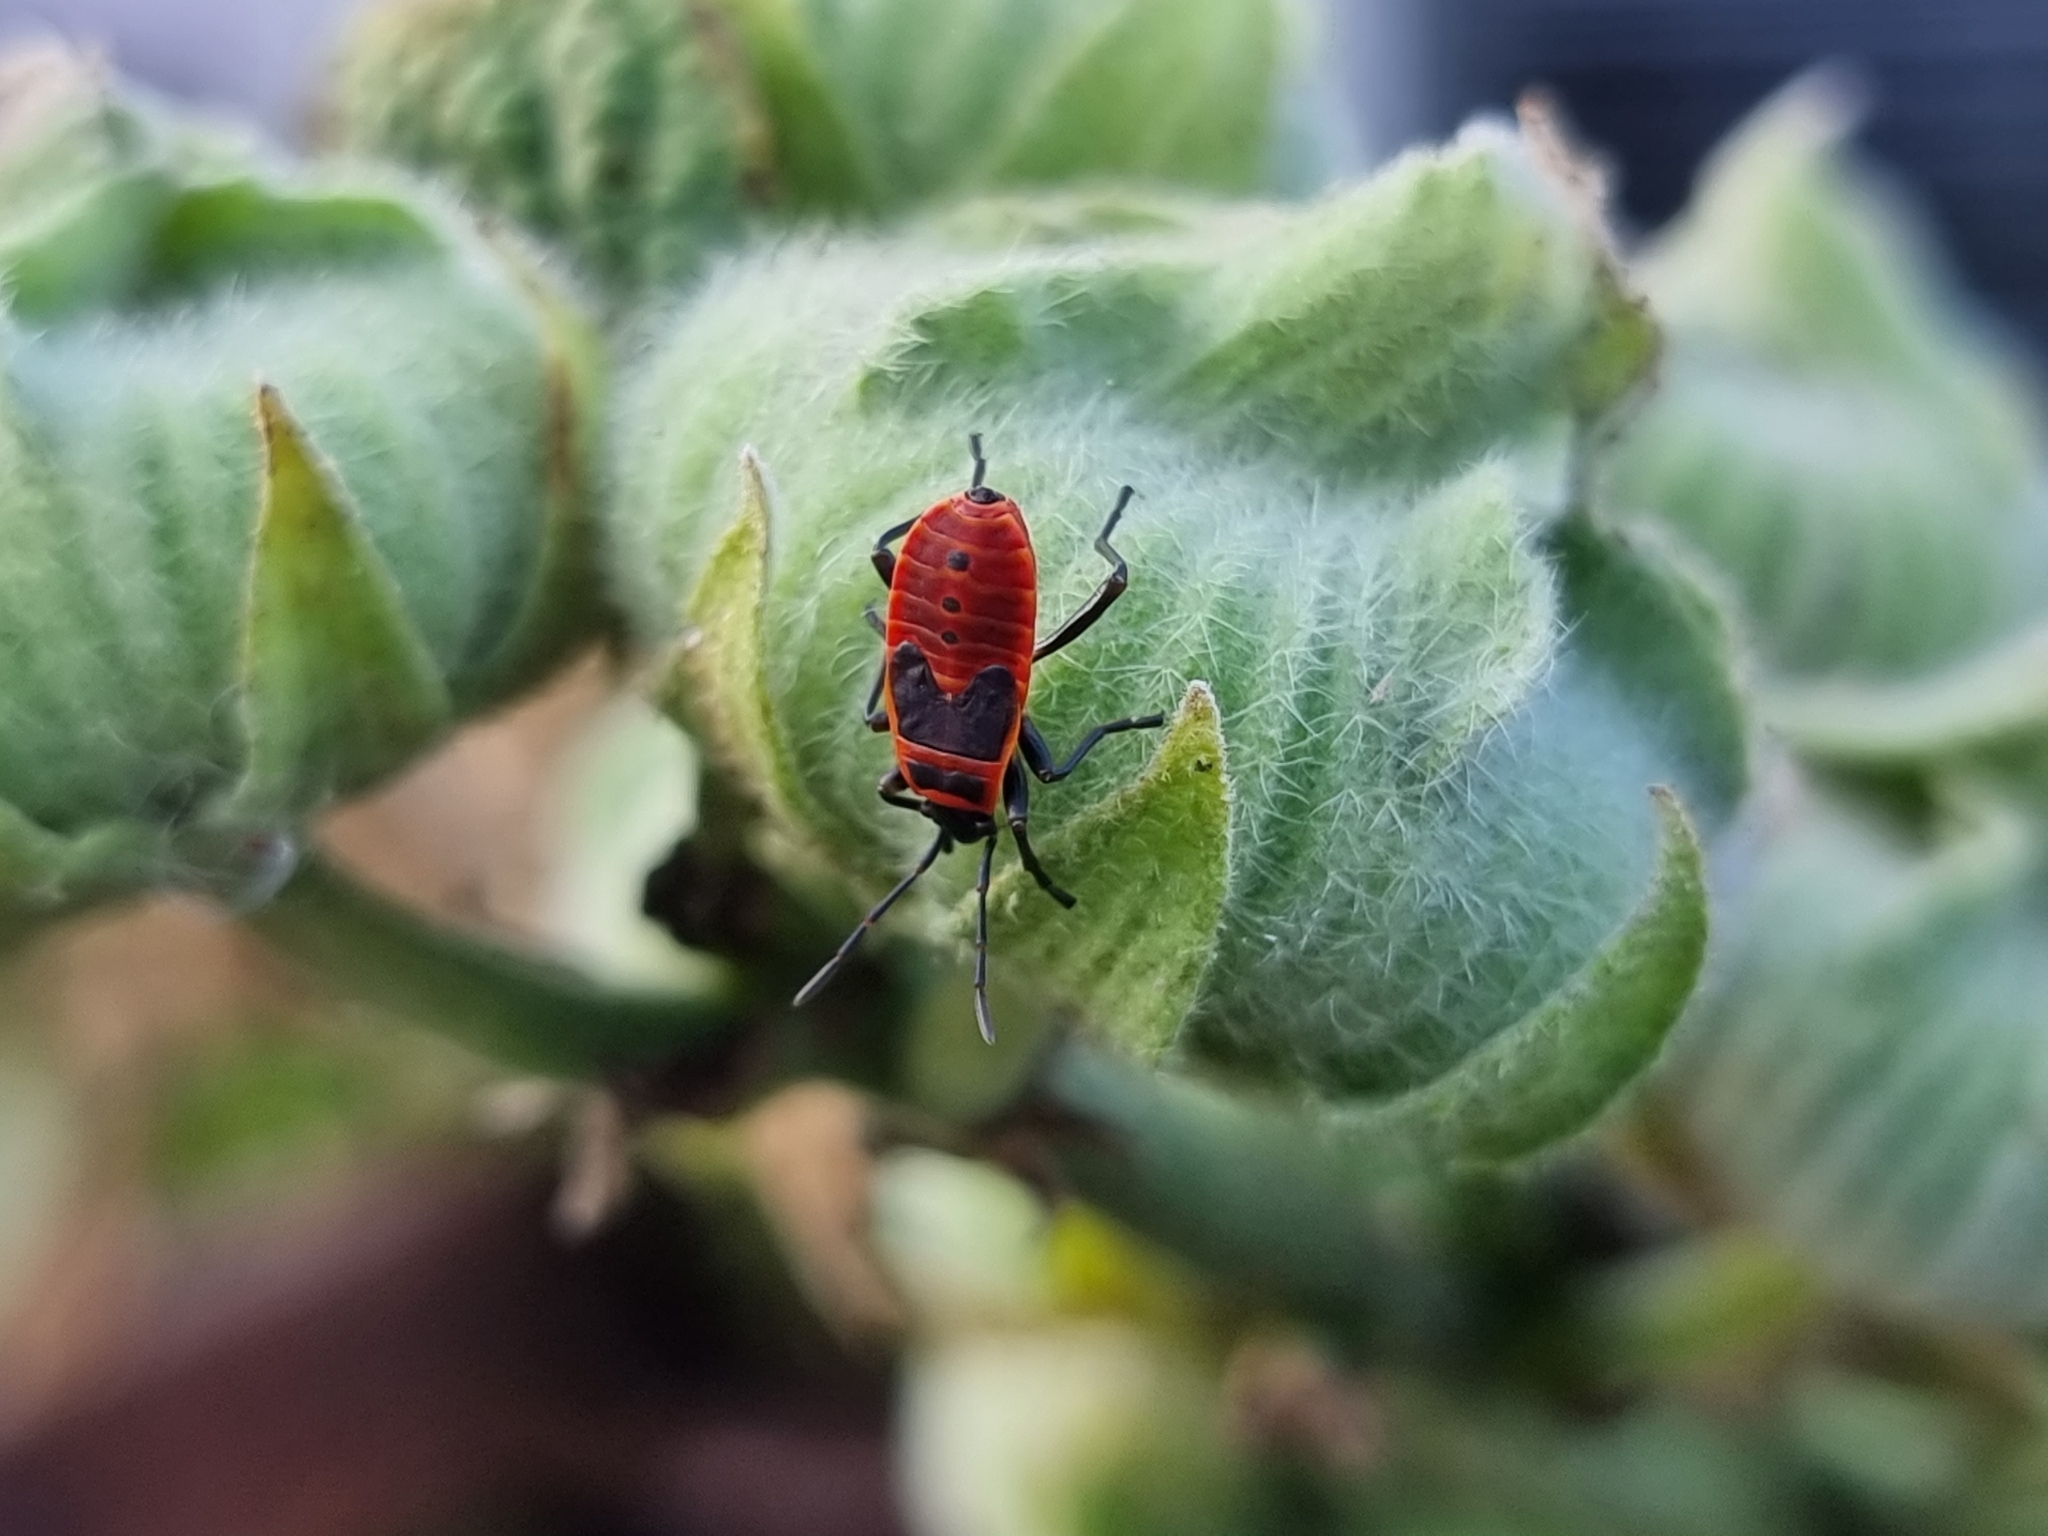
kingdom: Animalia
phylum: Arthropoda
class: Insecta
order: Hemiptera
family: Pyrrhocoridae
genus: Pyrrhocoris
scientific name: Pyrrhocoris apterus
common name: Firebug
